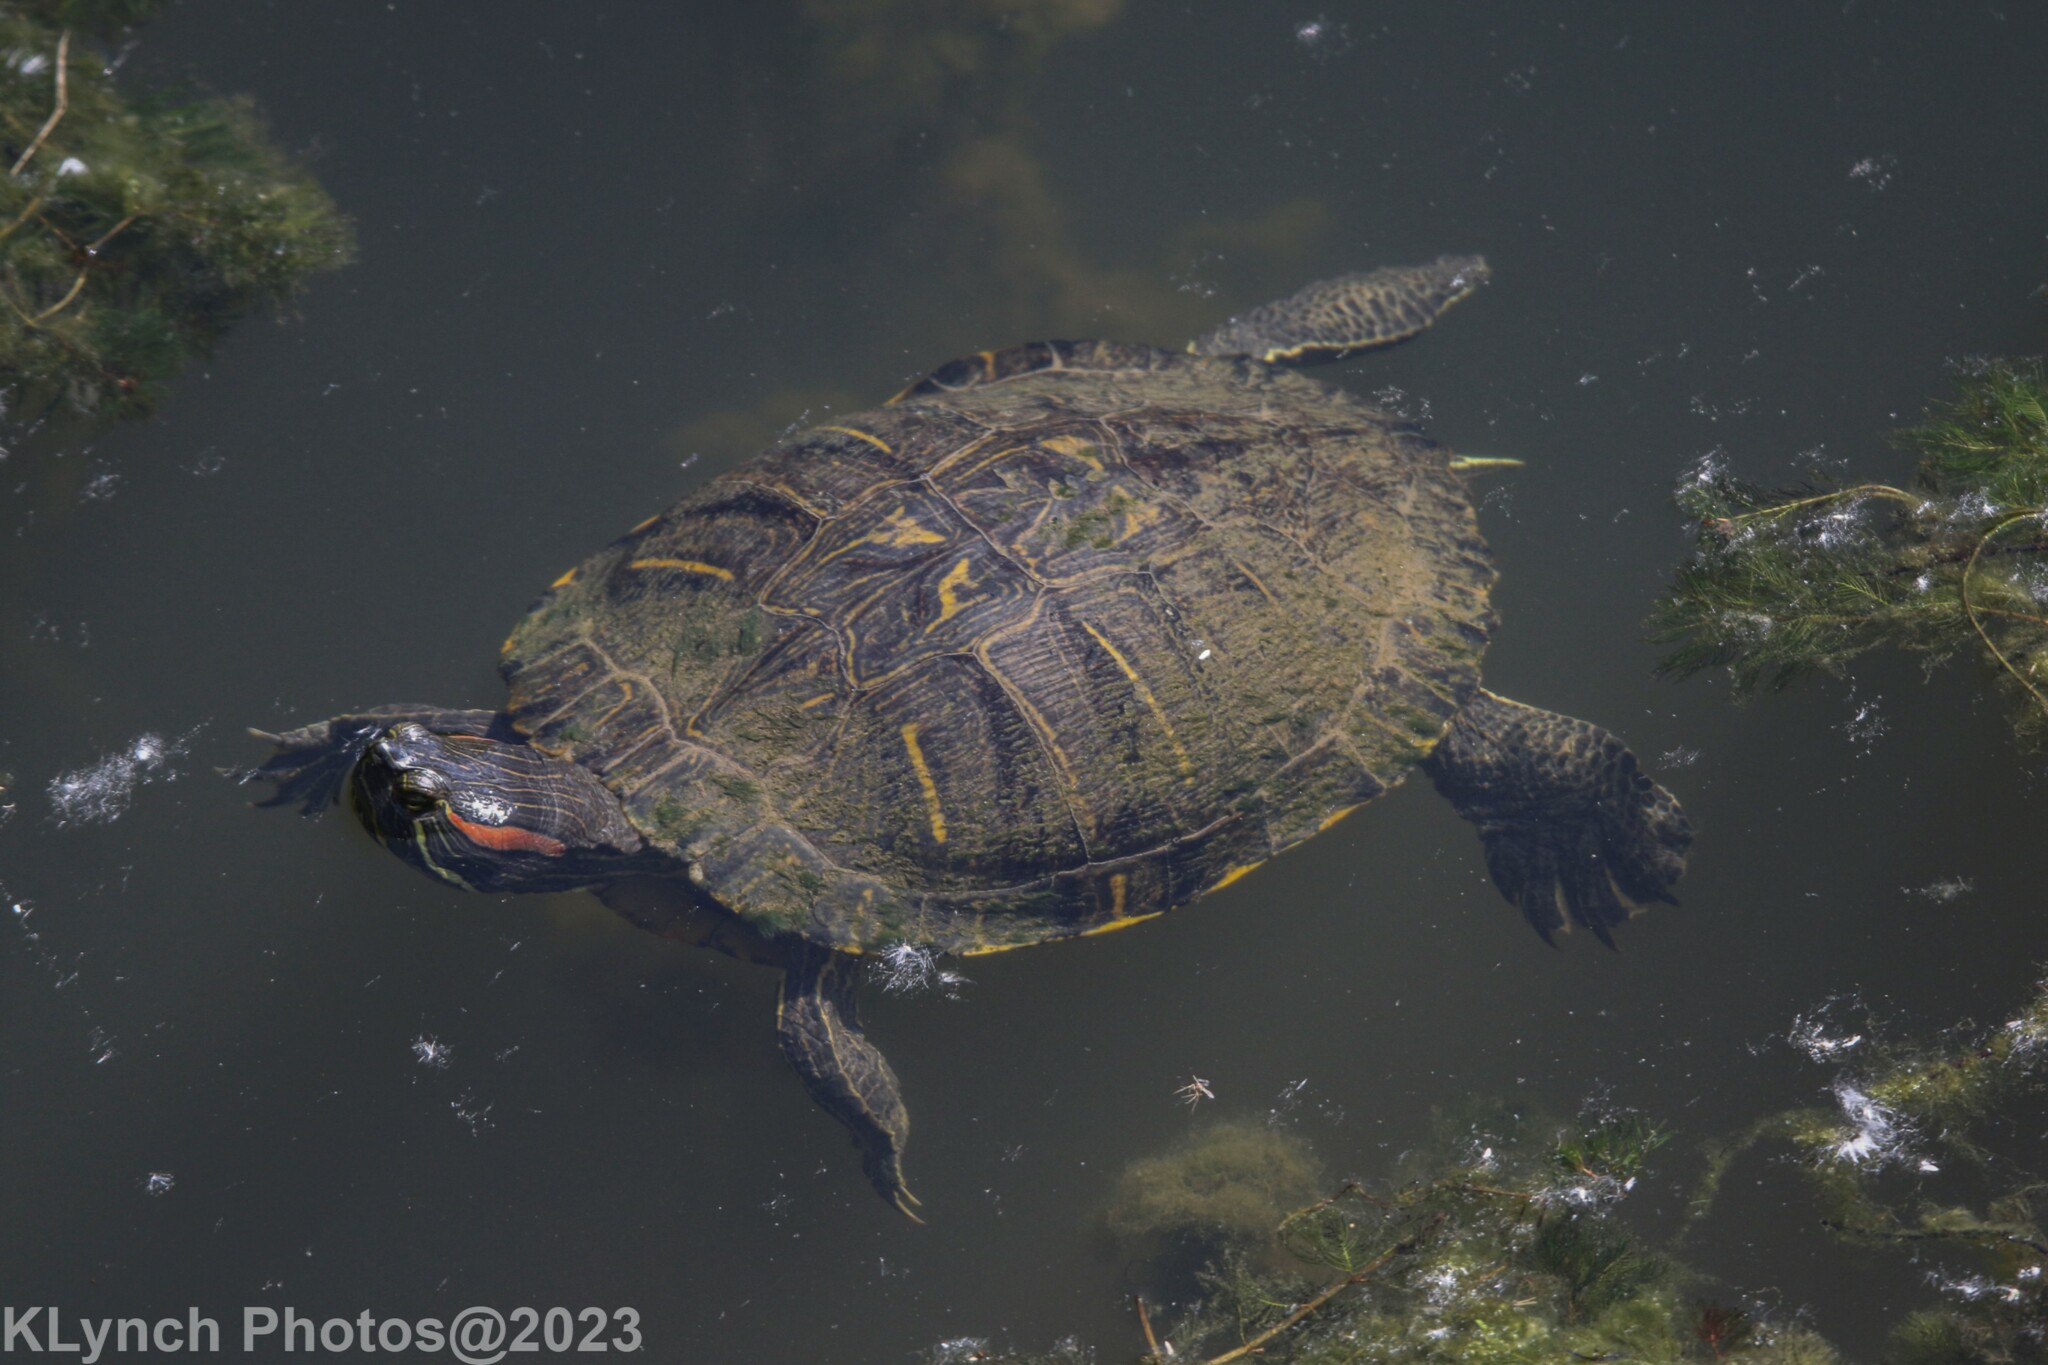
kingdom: Animalia
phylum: Chordata
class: Testudines
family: Emydidae
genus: Trachemys
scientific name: Trachemys scripta
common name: Slider
